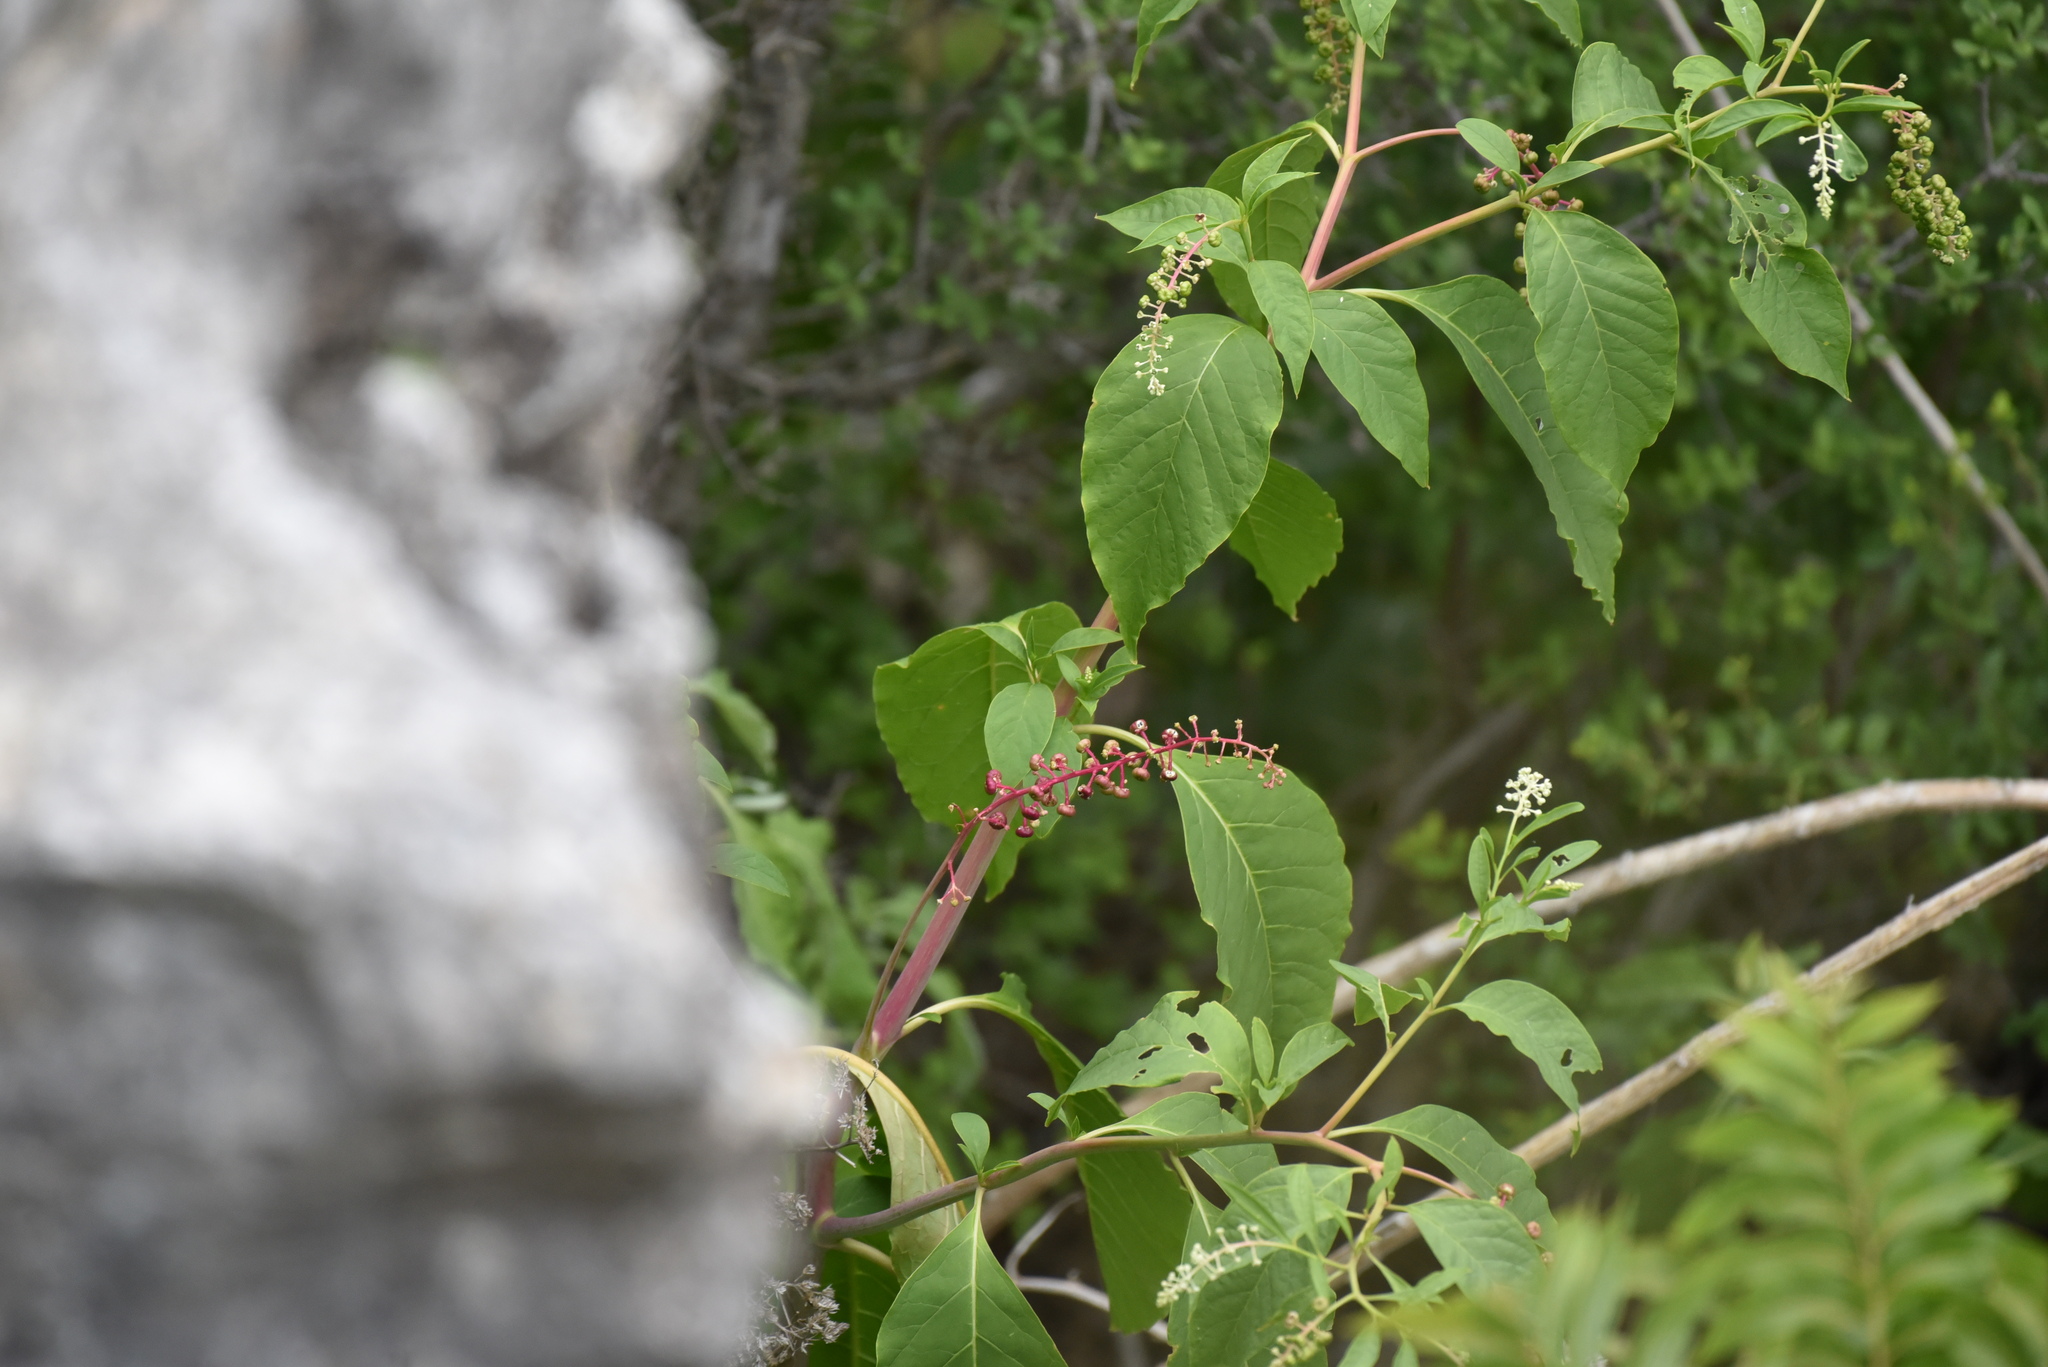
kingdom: Plantae
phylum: Tracheophyta
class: Magnoliopsida
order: Caryophyllales
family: Phytolaccaceae
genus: Phytolacca
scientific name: Phytolacca americana
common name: American pokeweed
